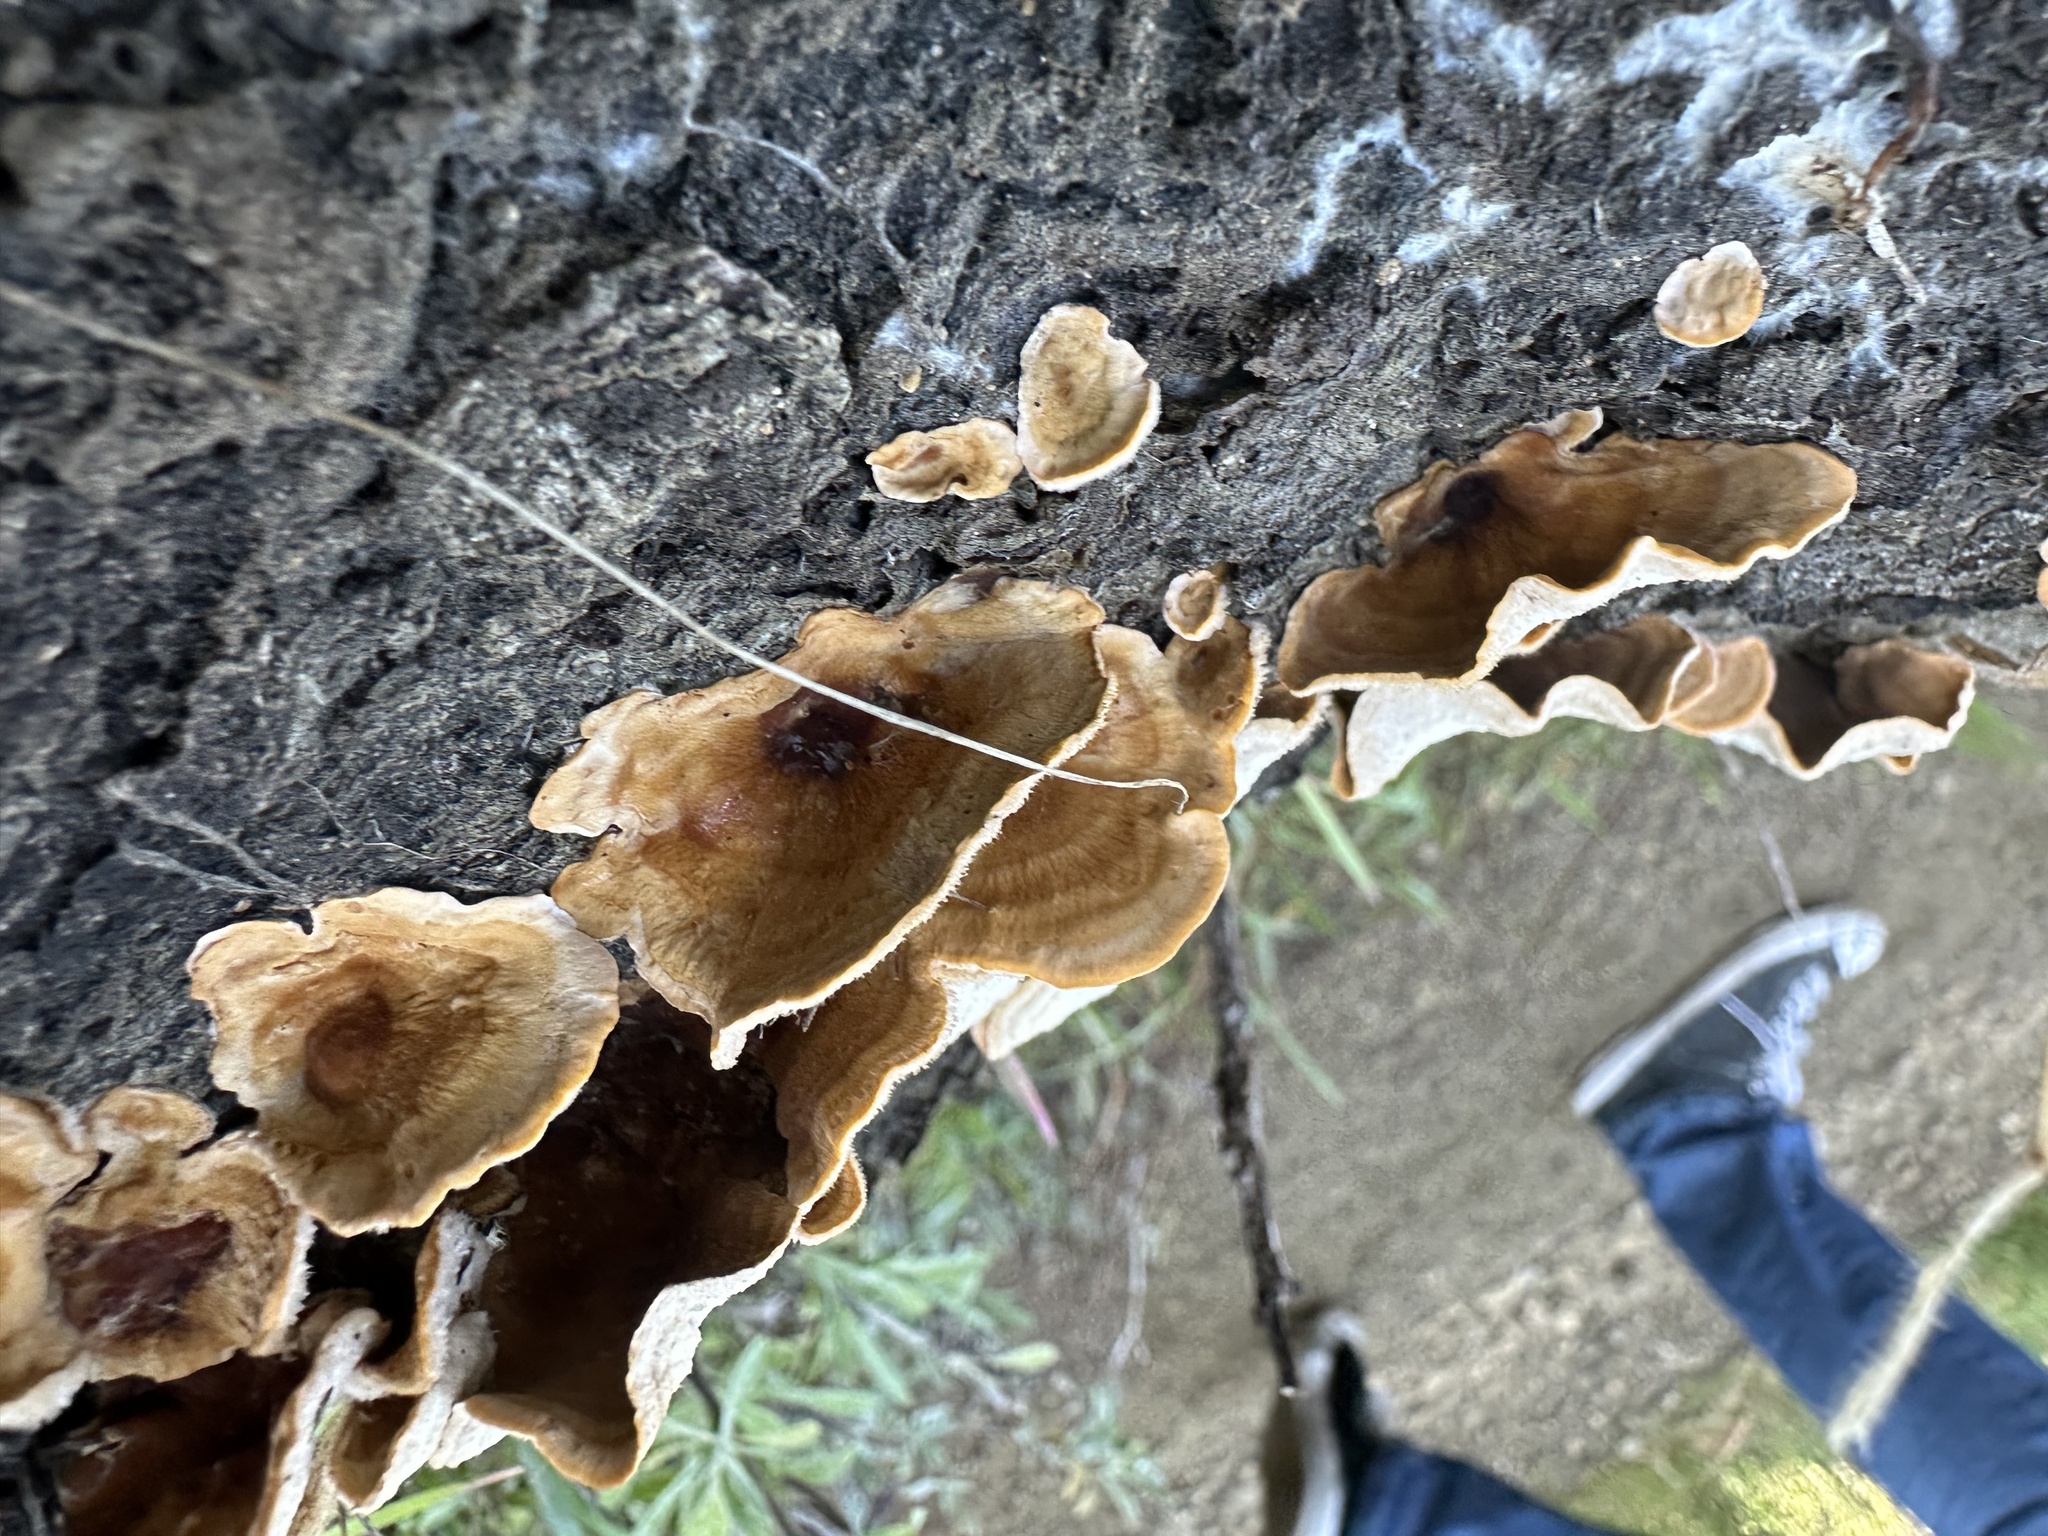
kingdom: Fungi
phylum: Basidiomycota
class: Agaricomycetes
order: Russulales
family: Stereaceae
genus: Stereum
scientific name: Stereum hirsutum
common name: Hairy curtain crust
